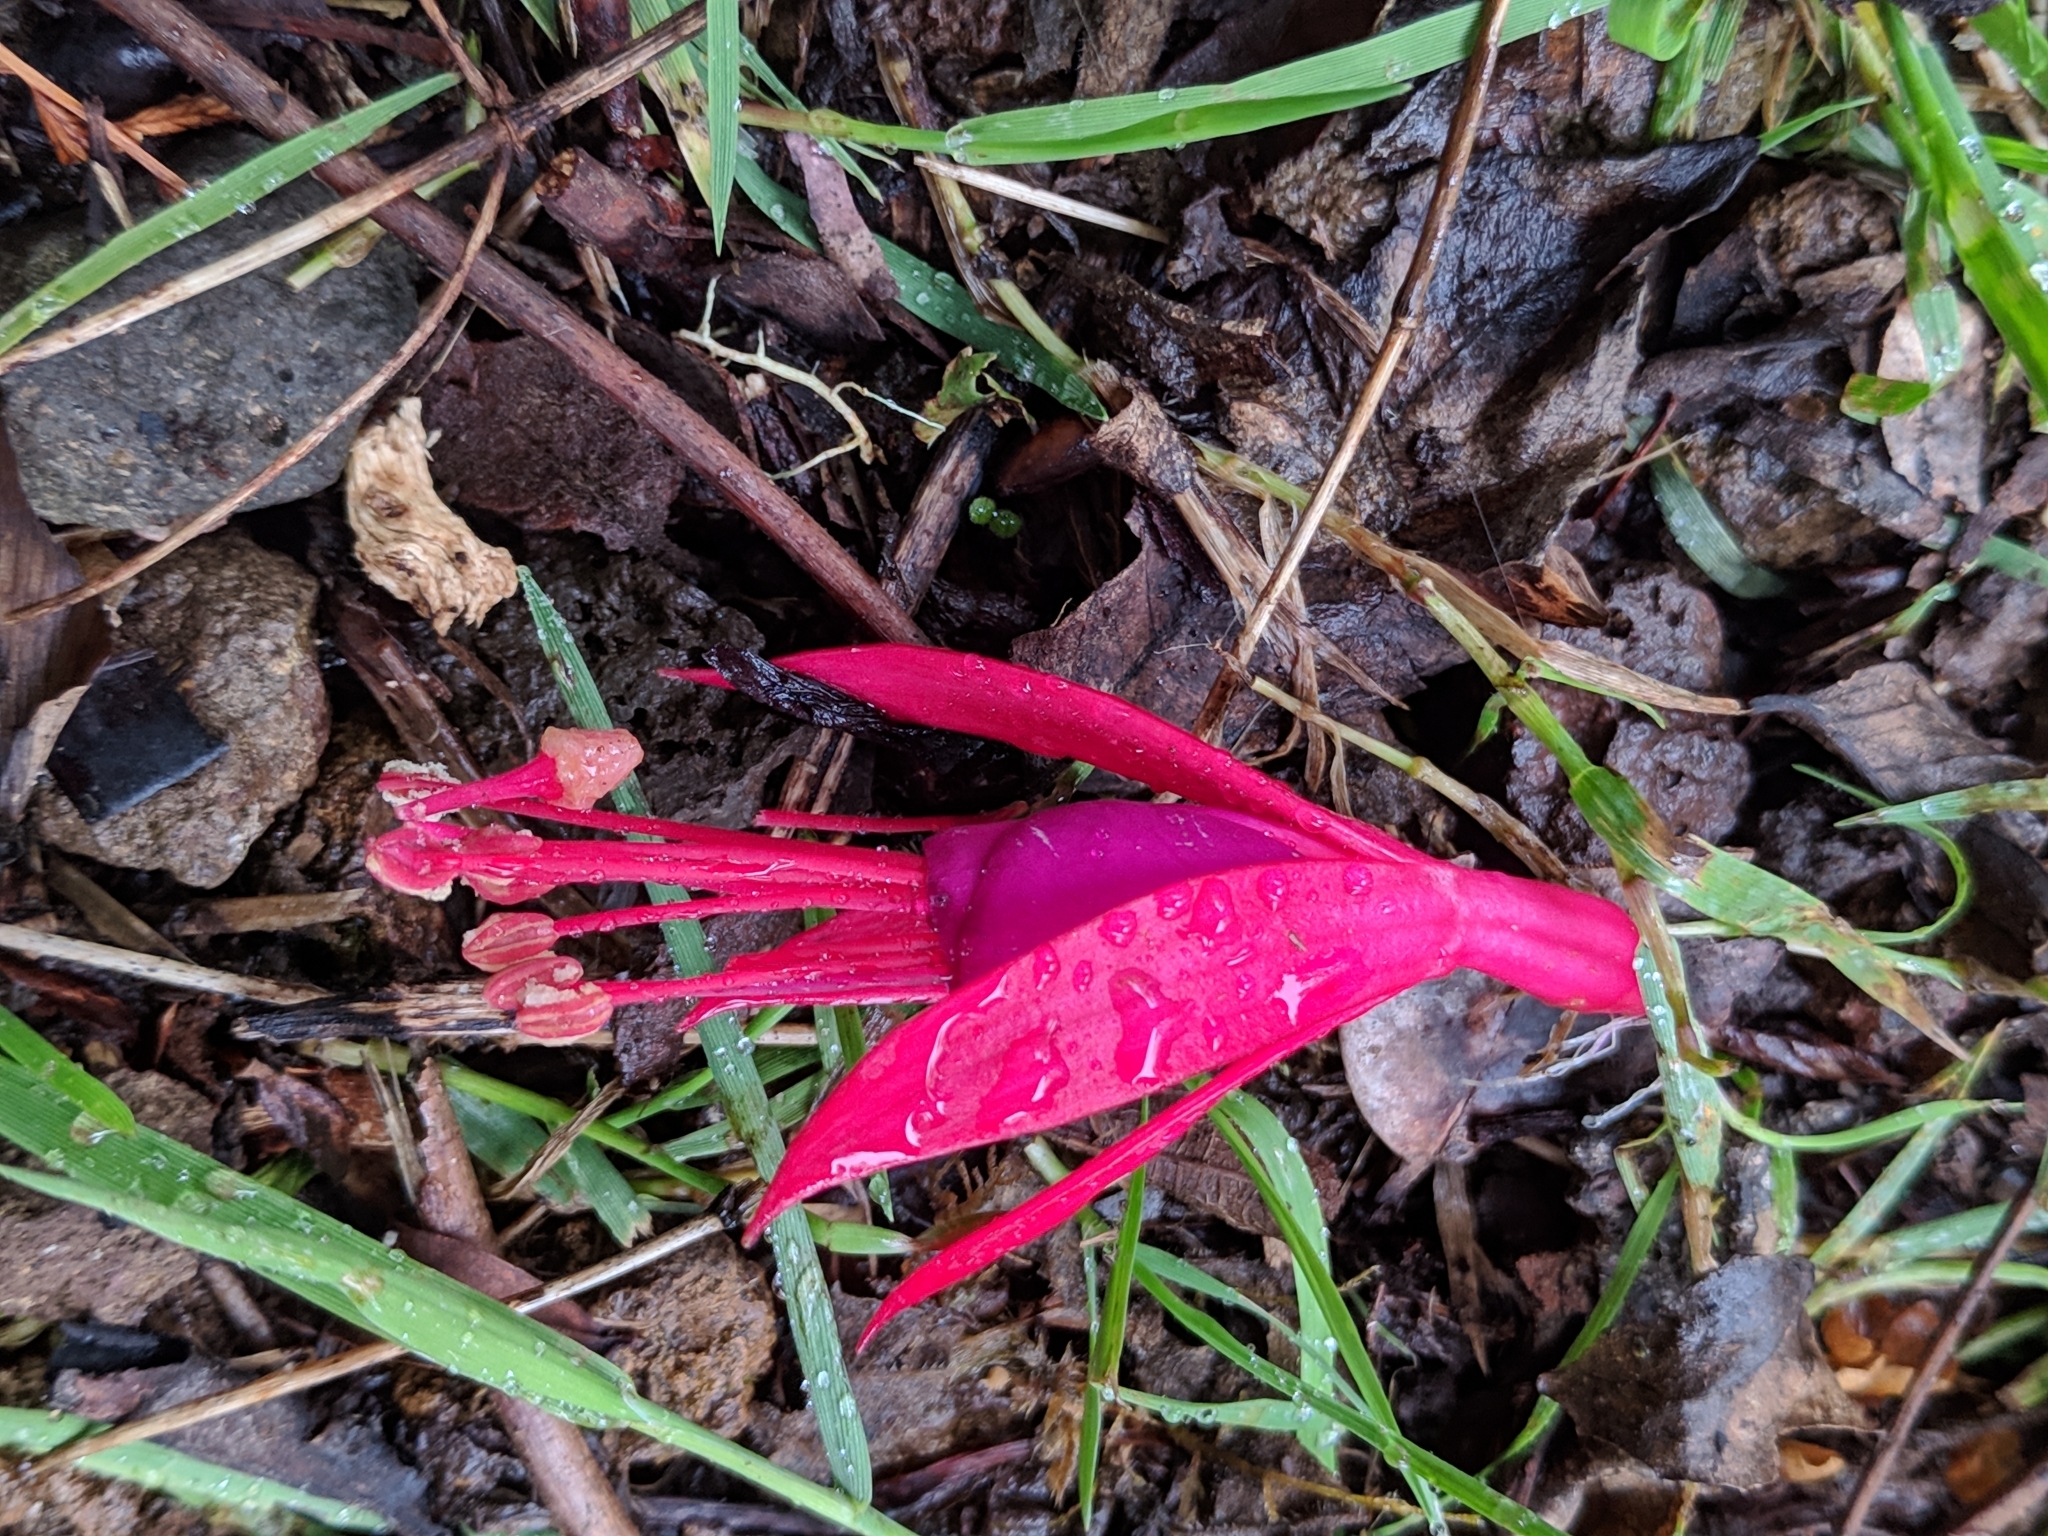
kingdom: Plantae
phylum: Tracheophyta
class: Magnoliopsida
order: Myrtales
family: Onagraceae
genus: Fuchsia
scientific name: Fuchsia magellanica
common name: Hardy fuchsia
